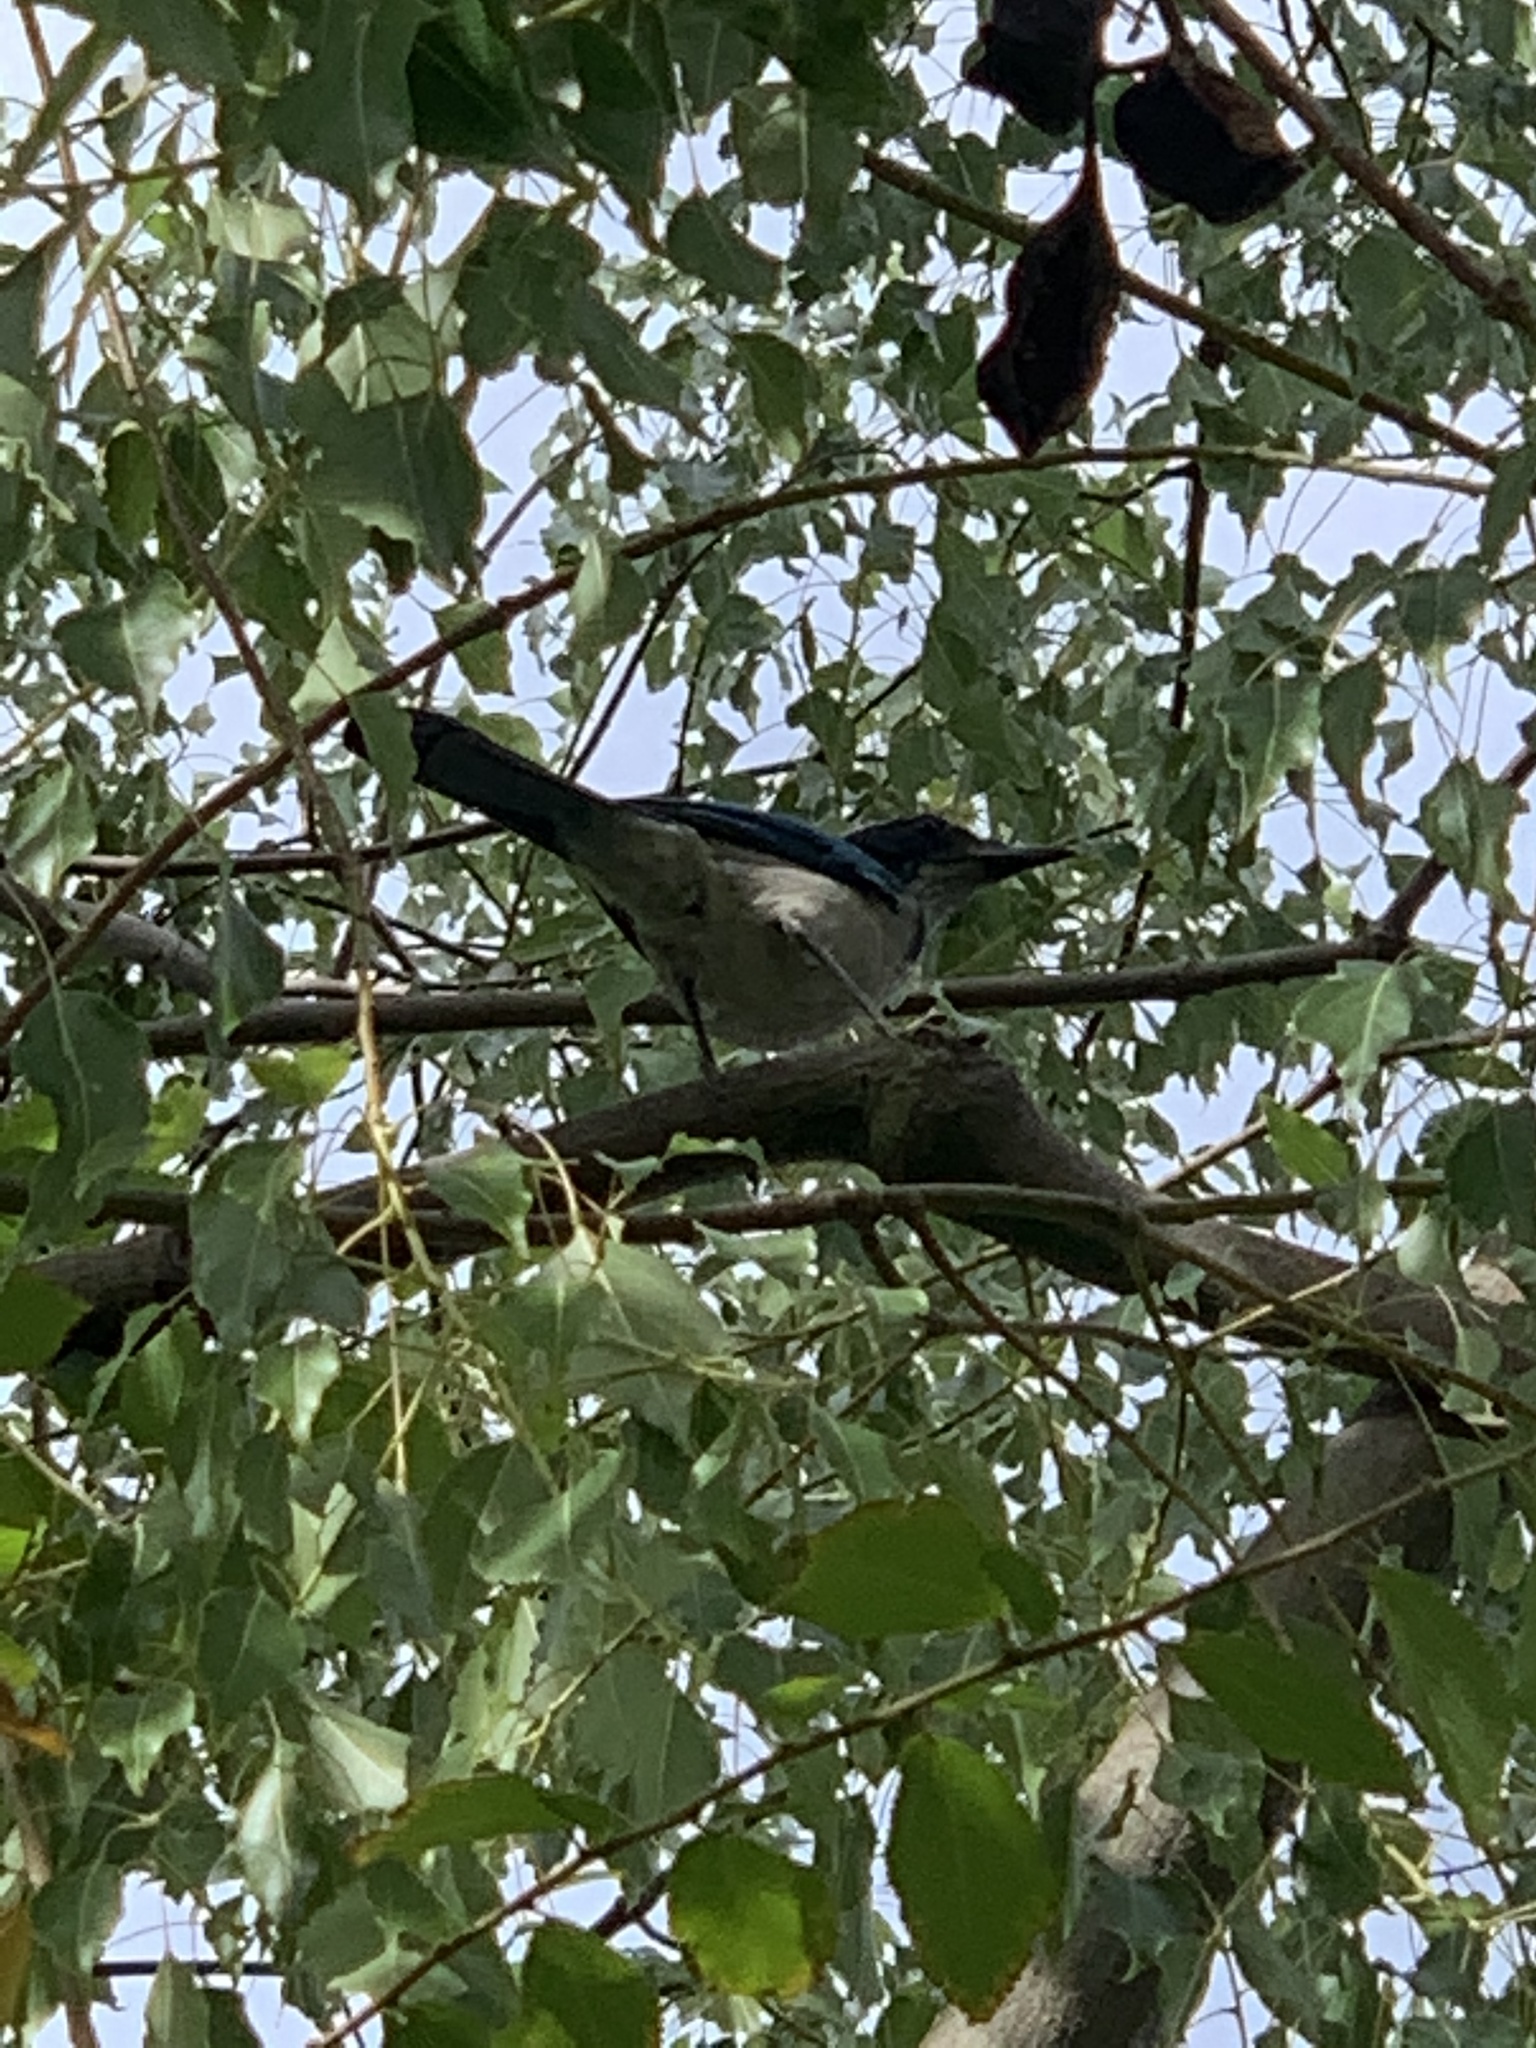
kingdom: Animalia
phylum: Chordata
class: Aves
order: Passeriformes
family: Corvidae
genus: Aphelocoma
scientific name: Aphelocoma californica
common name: California scrub-jay
